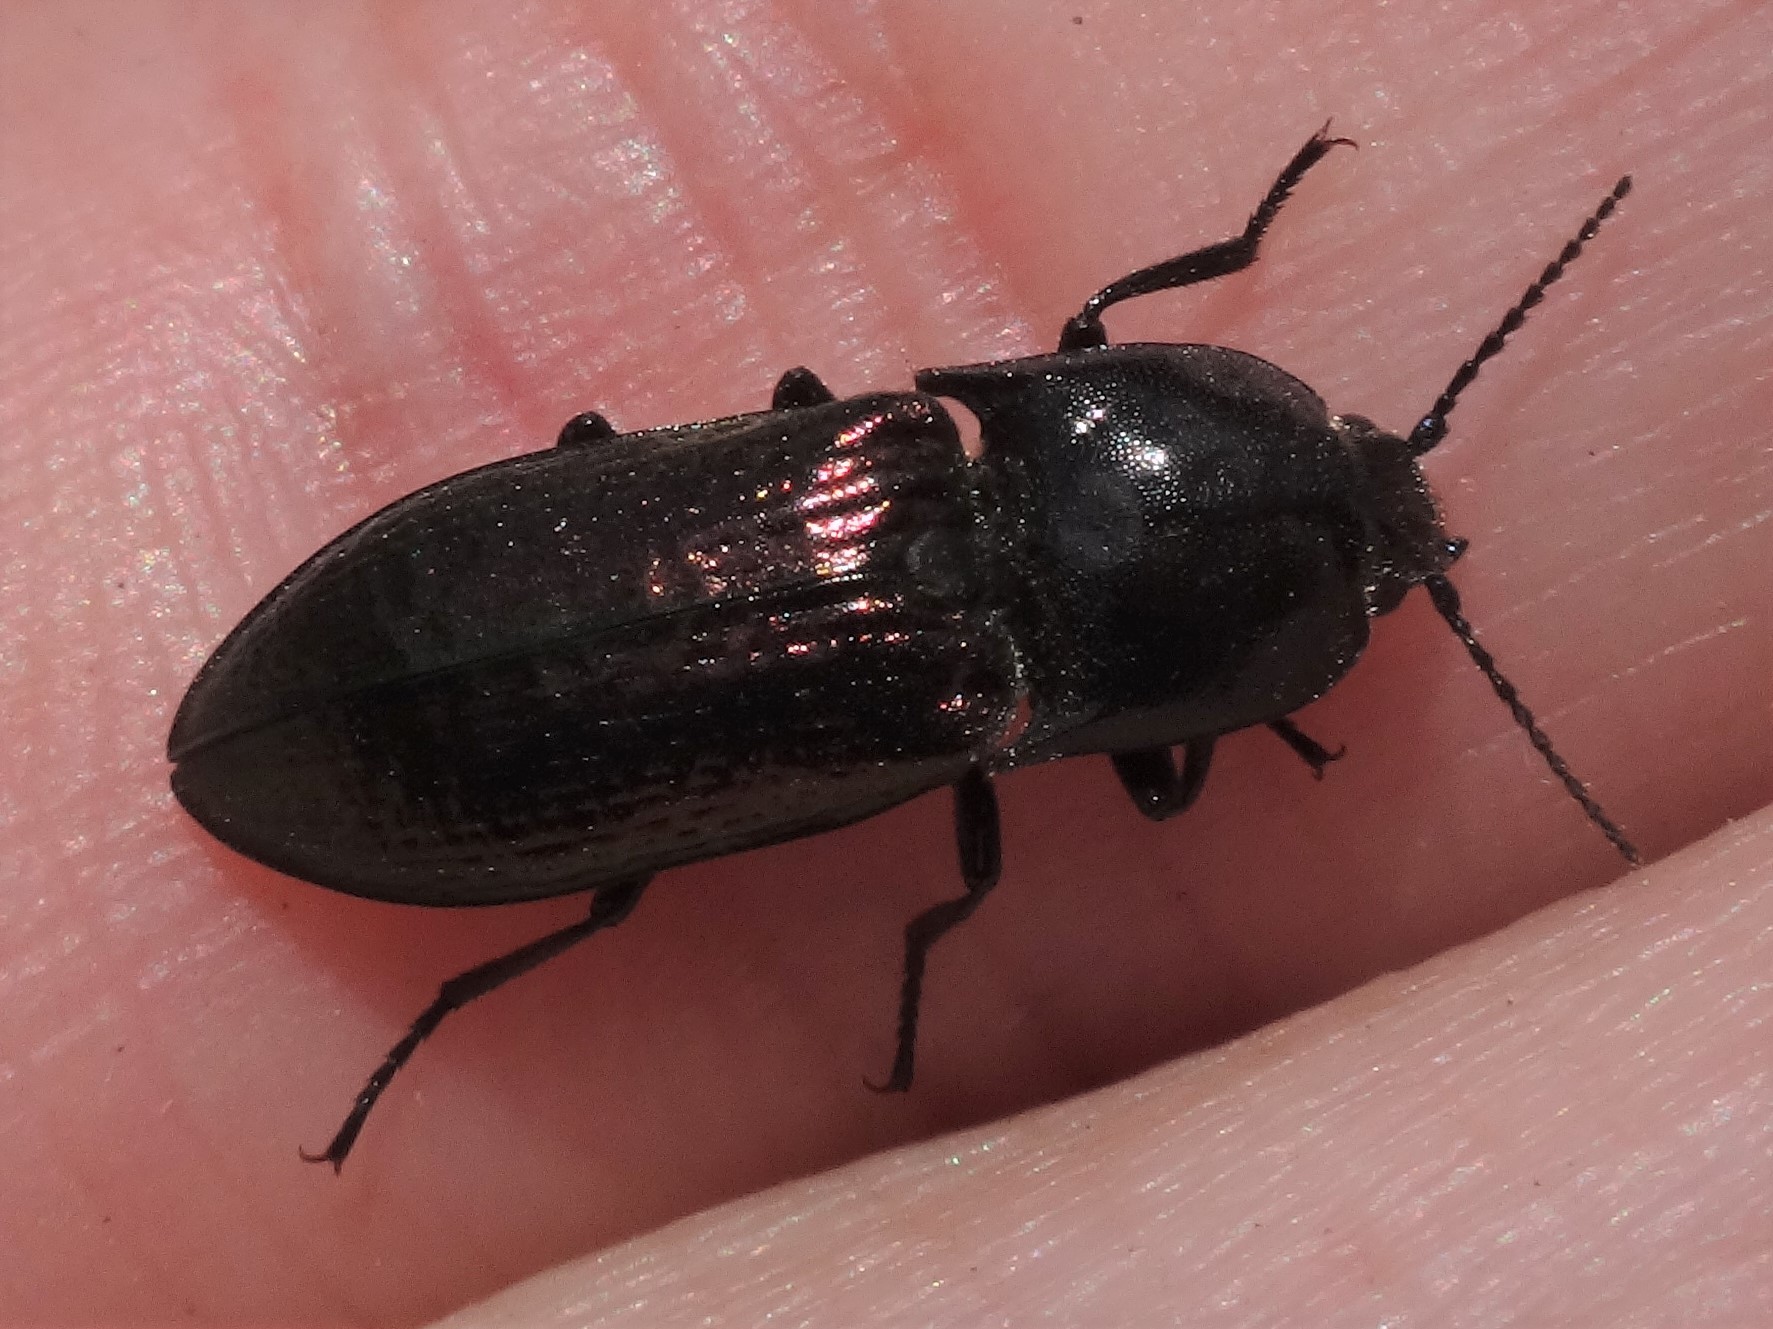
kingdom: Animalia
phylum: Arthropoda
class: Insecta
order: Coleoptera
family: Elateridae
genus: Selatosomus
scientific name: Selatosomus confluens
